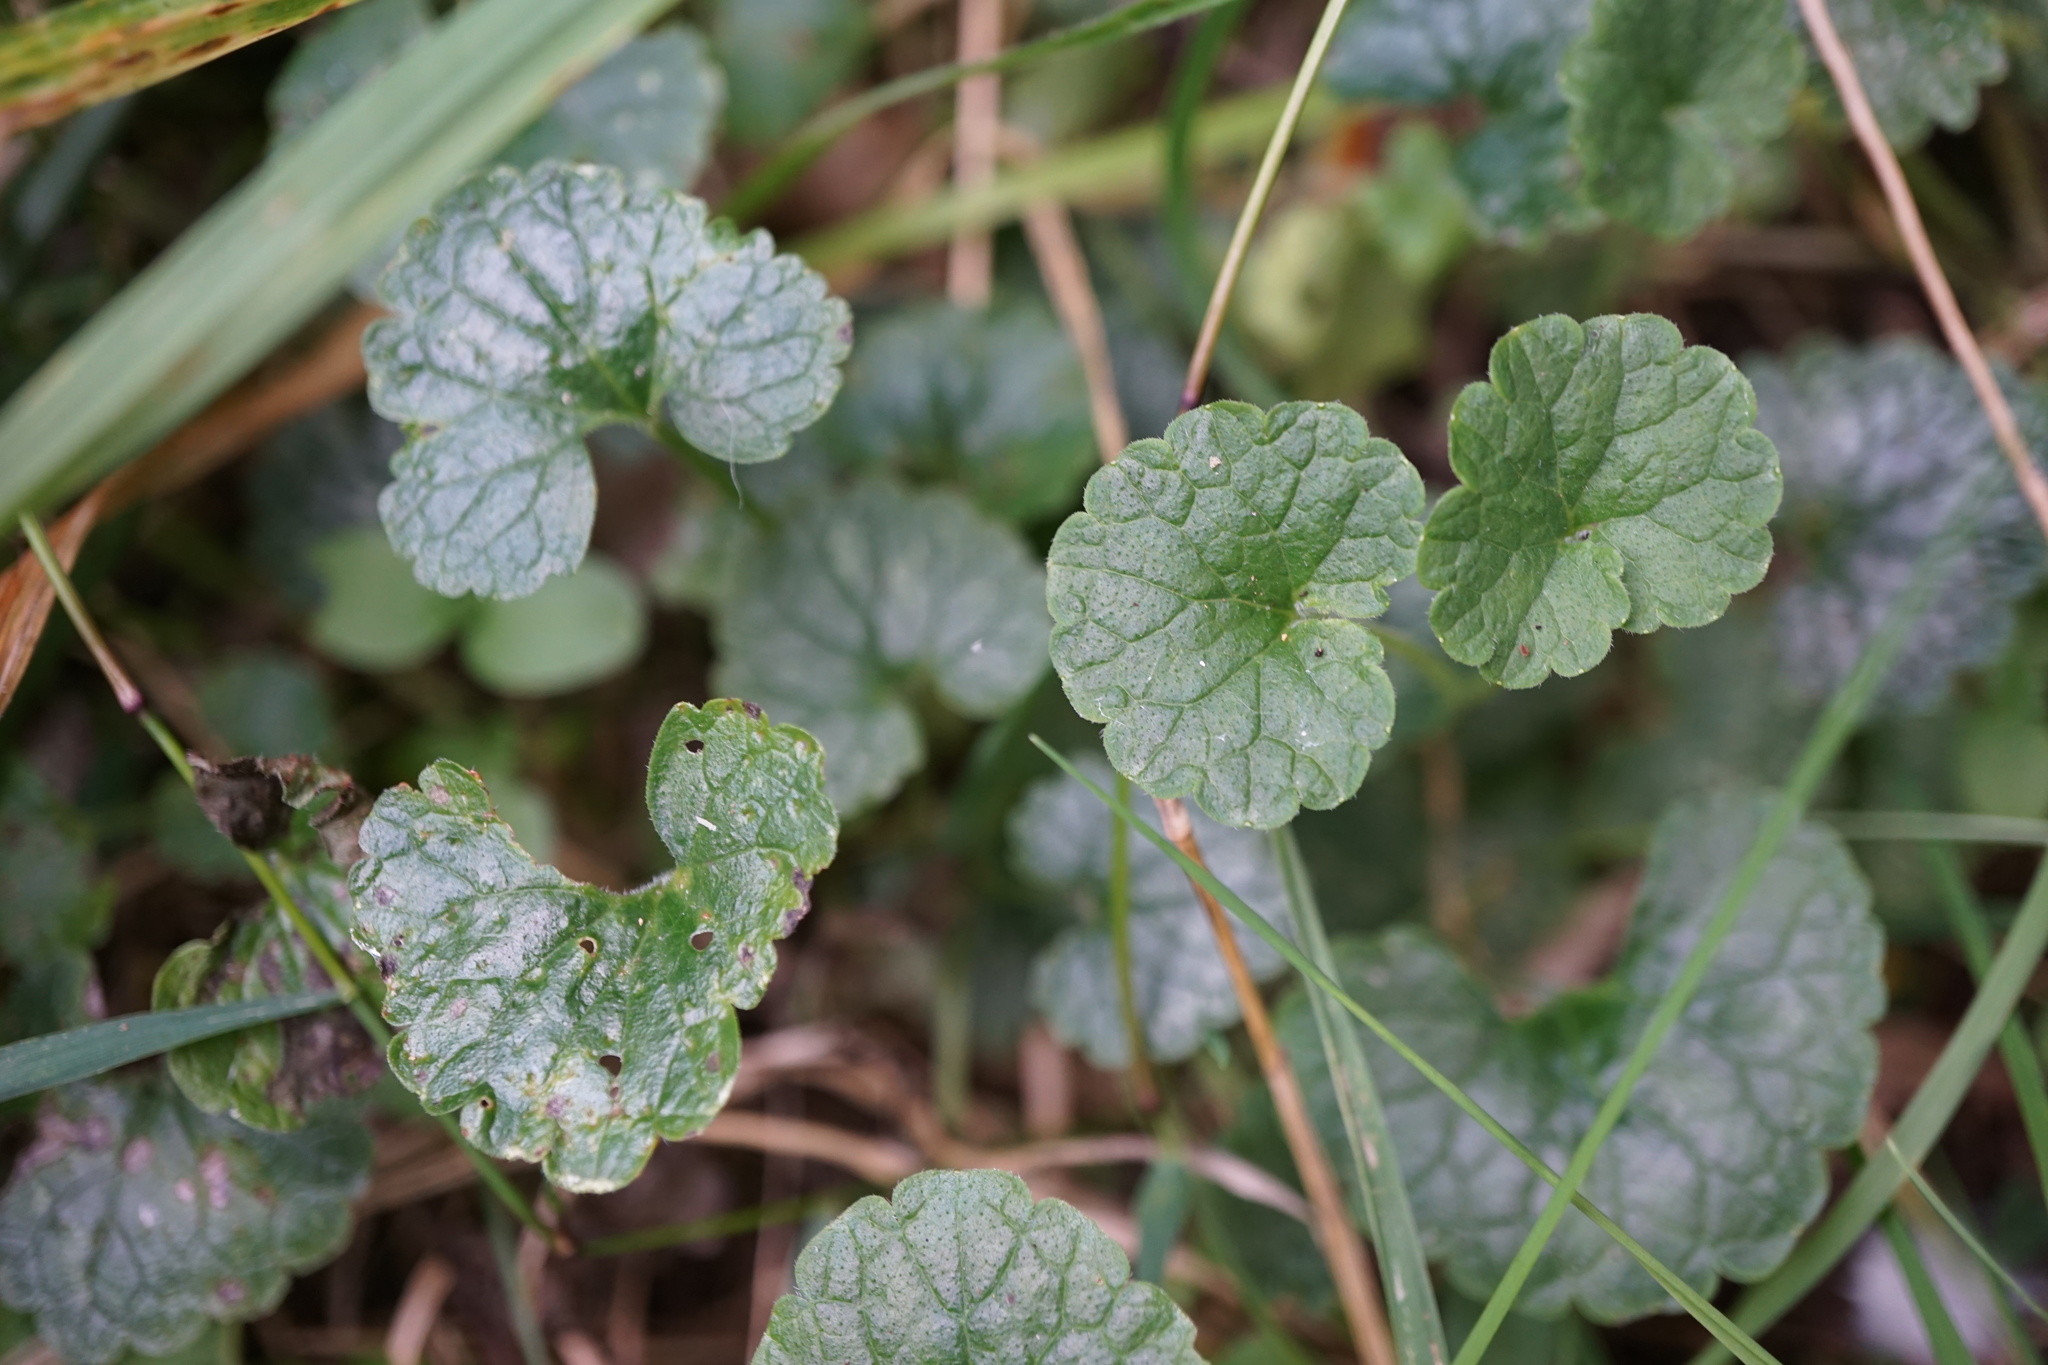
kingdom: Plantae
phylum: Tracheophyta
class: Magnoliopsida
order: Lamiales
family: Lamiaceae
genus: Glechoma
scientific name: Glechoma hederacea
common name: Ground ivy
